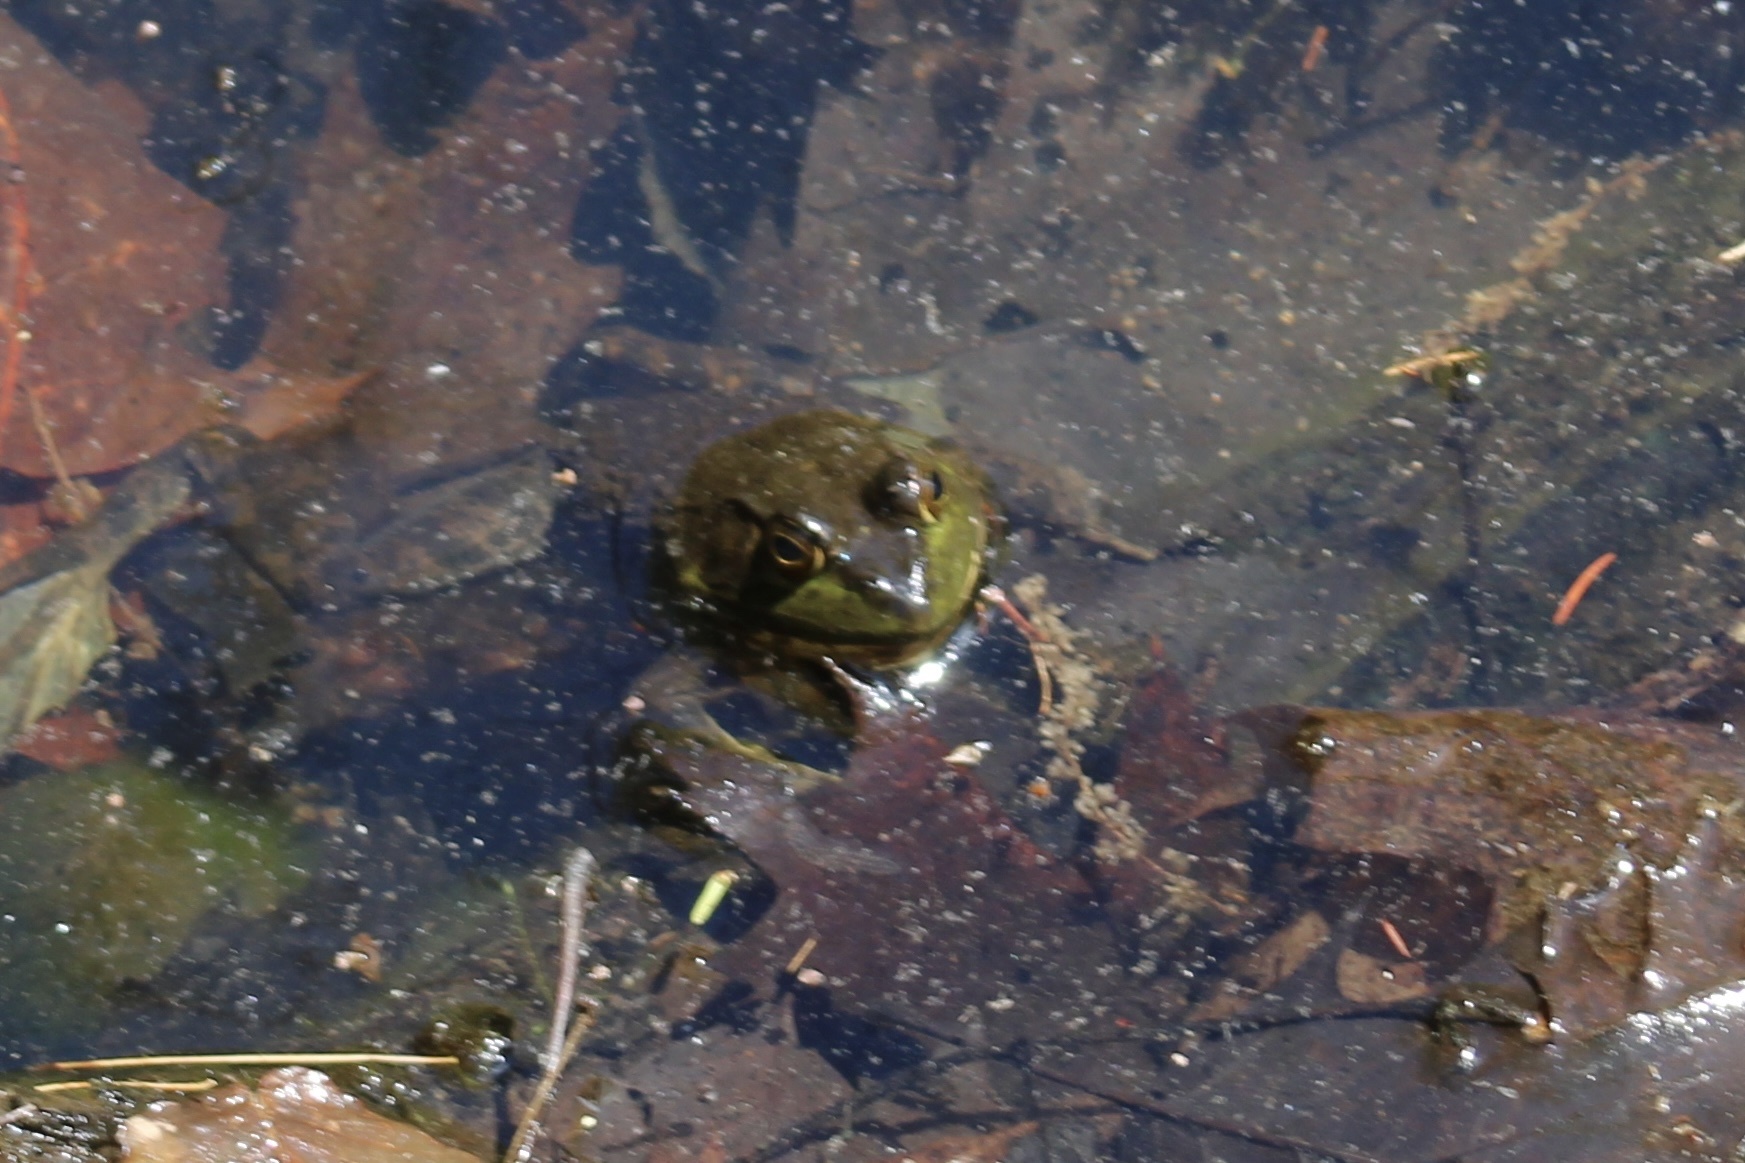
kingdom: Animalia
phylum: Chordata
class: Amphibia
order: Anura
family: Ranidae
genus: Lithobates
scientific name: Lithobates catesbeianus
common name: American bullfrog
